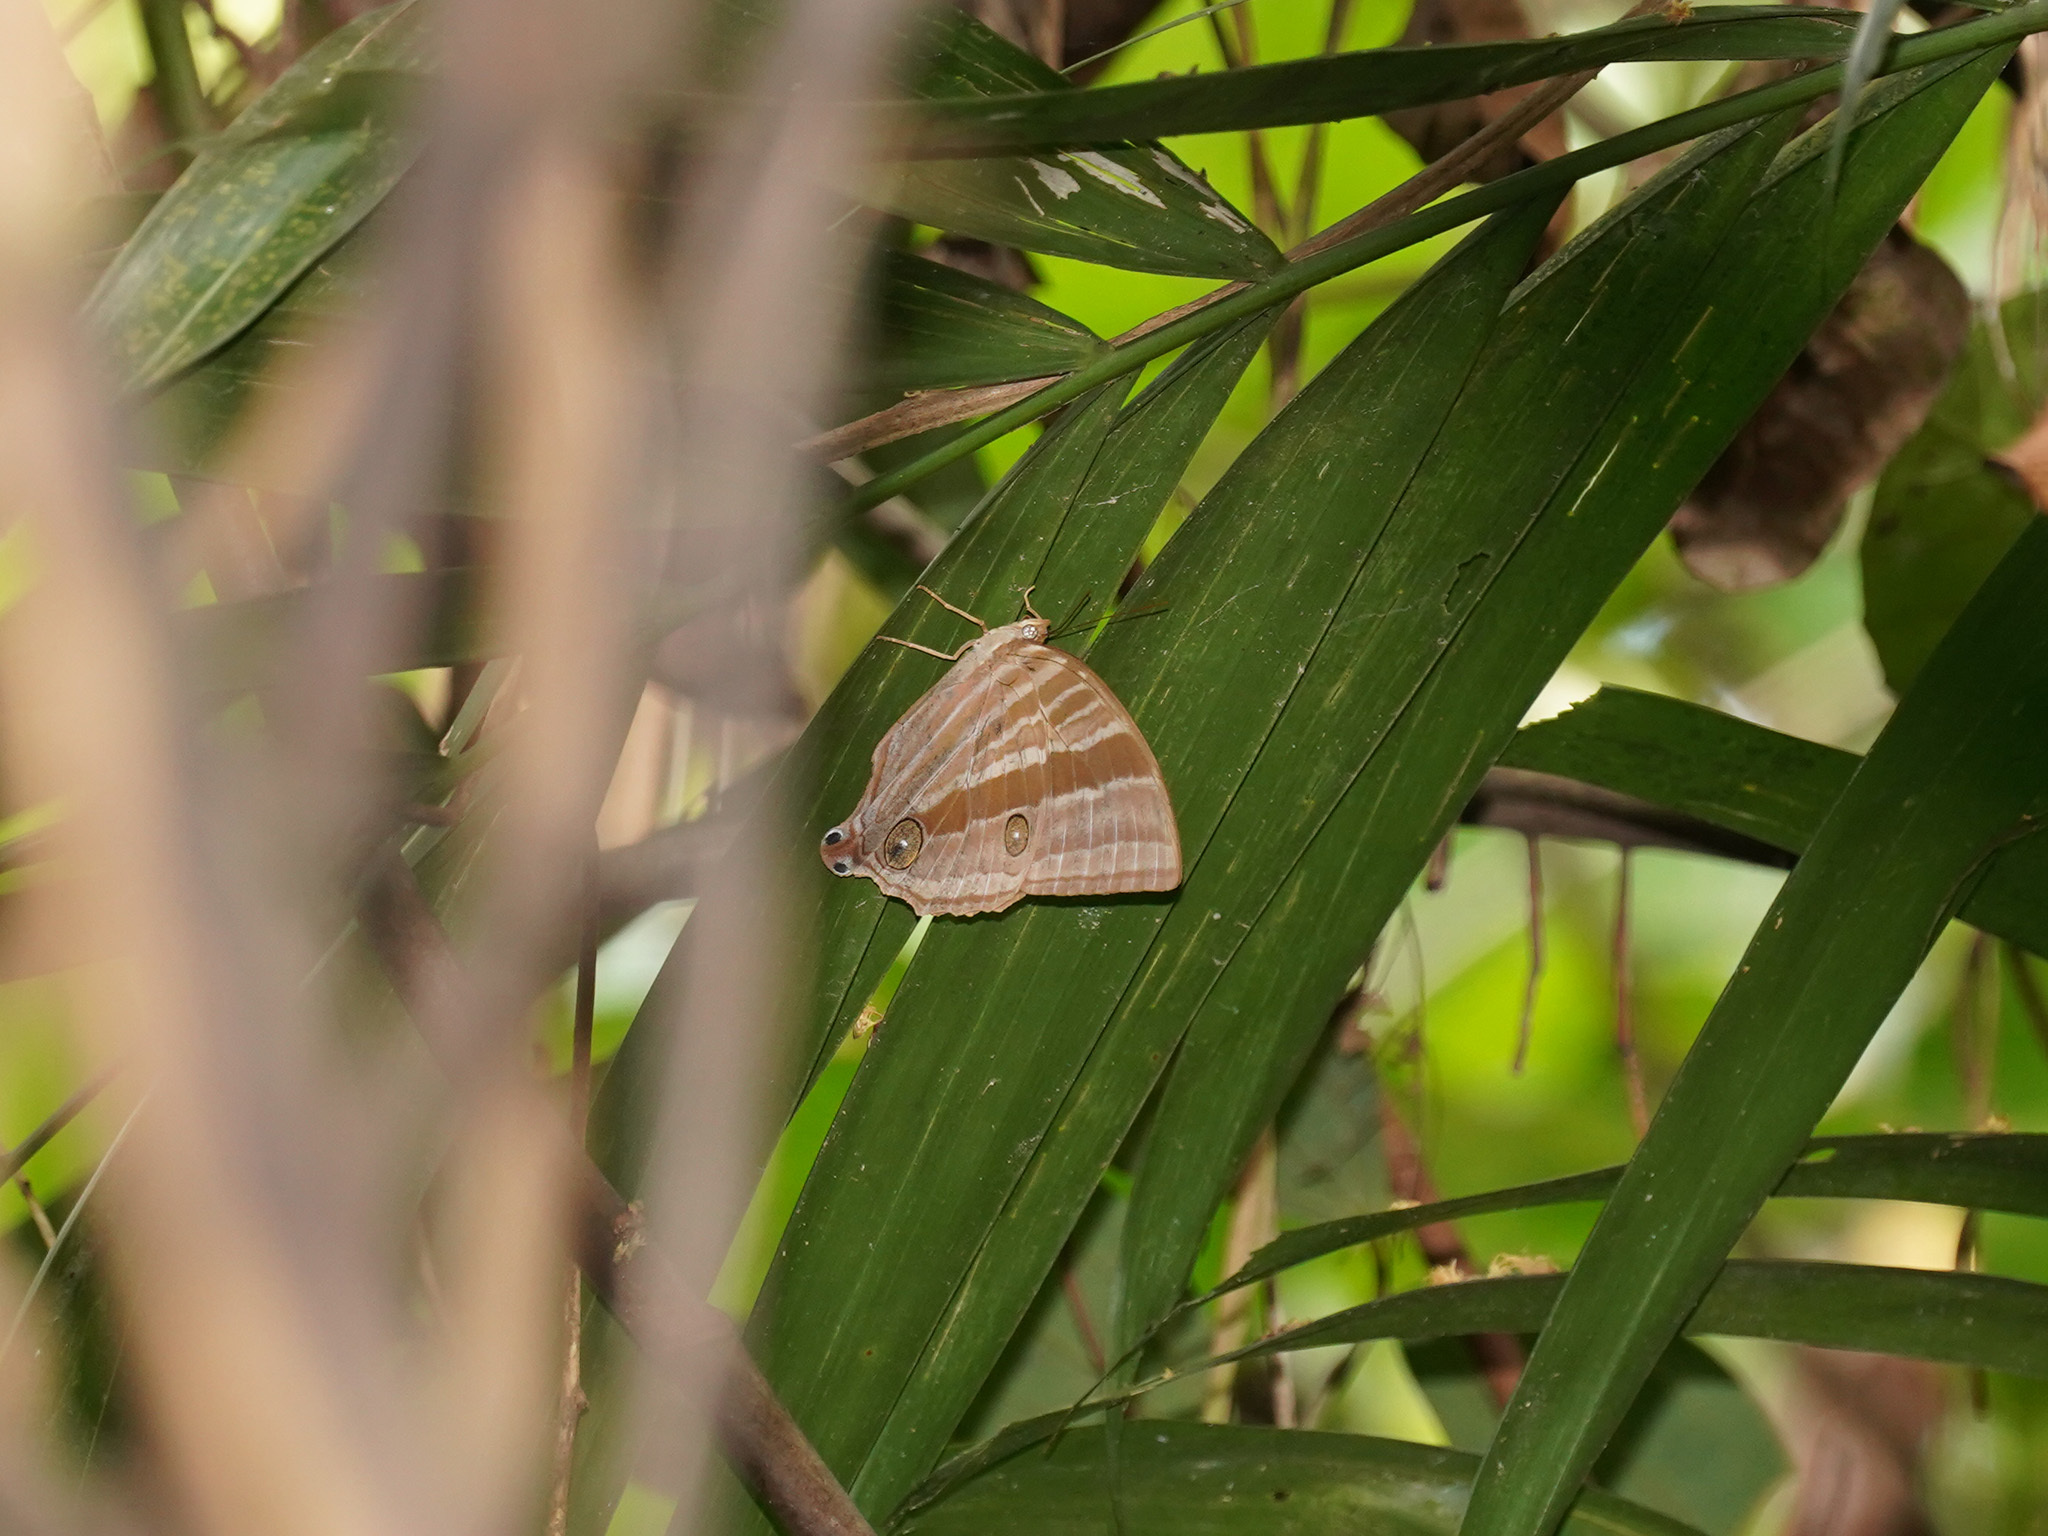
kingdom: Animalia
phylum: Arthropoda
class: Insecta
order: Lepidoptera
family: Nymphalidae
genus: Amathusia
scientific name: Amathusia phidippus
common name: Palm king
